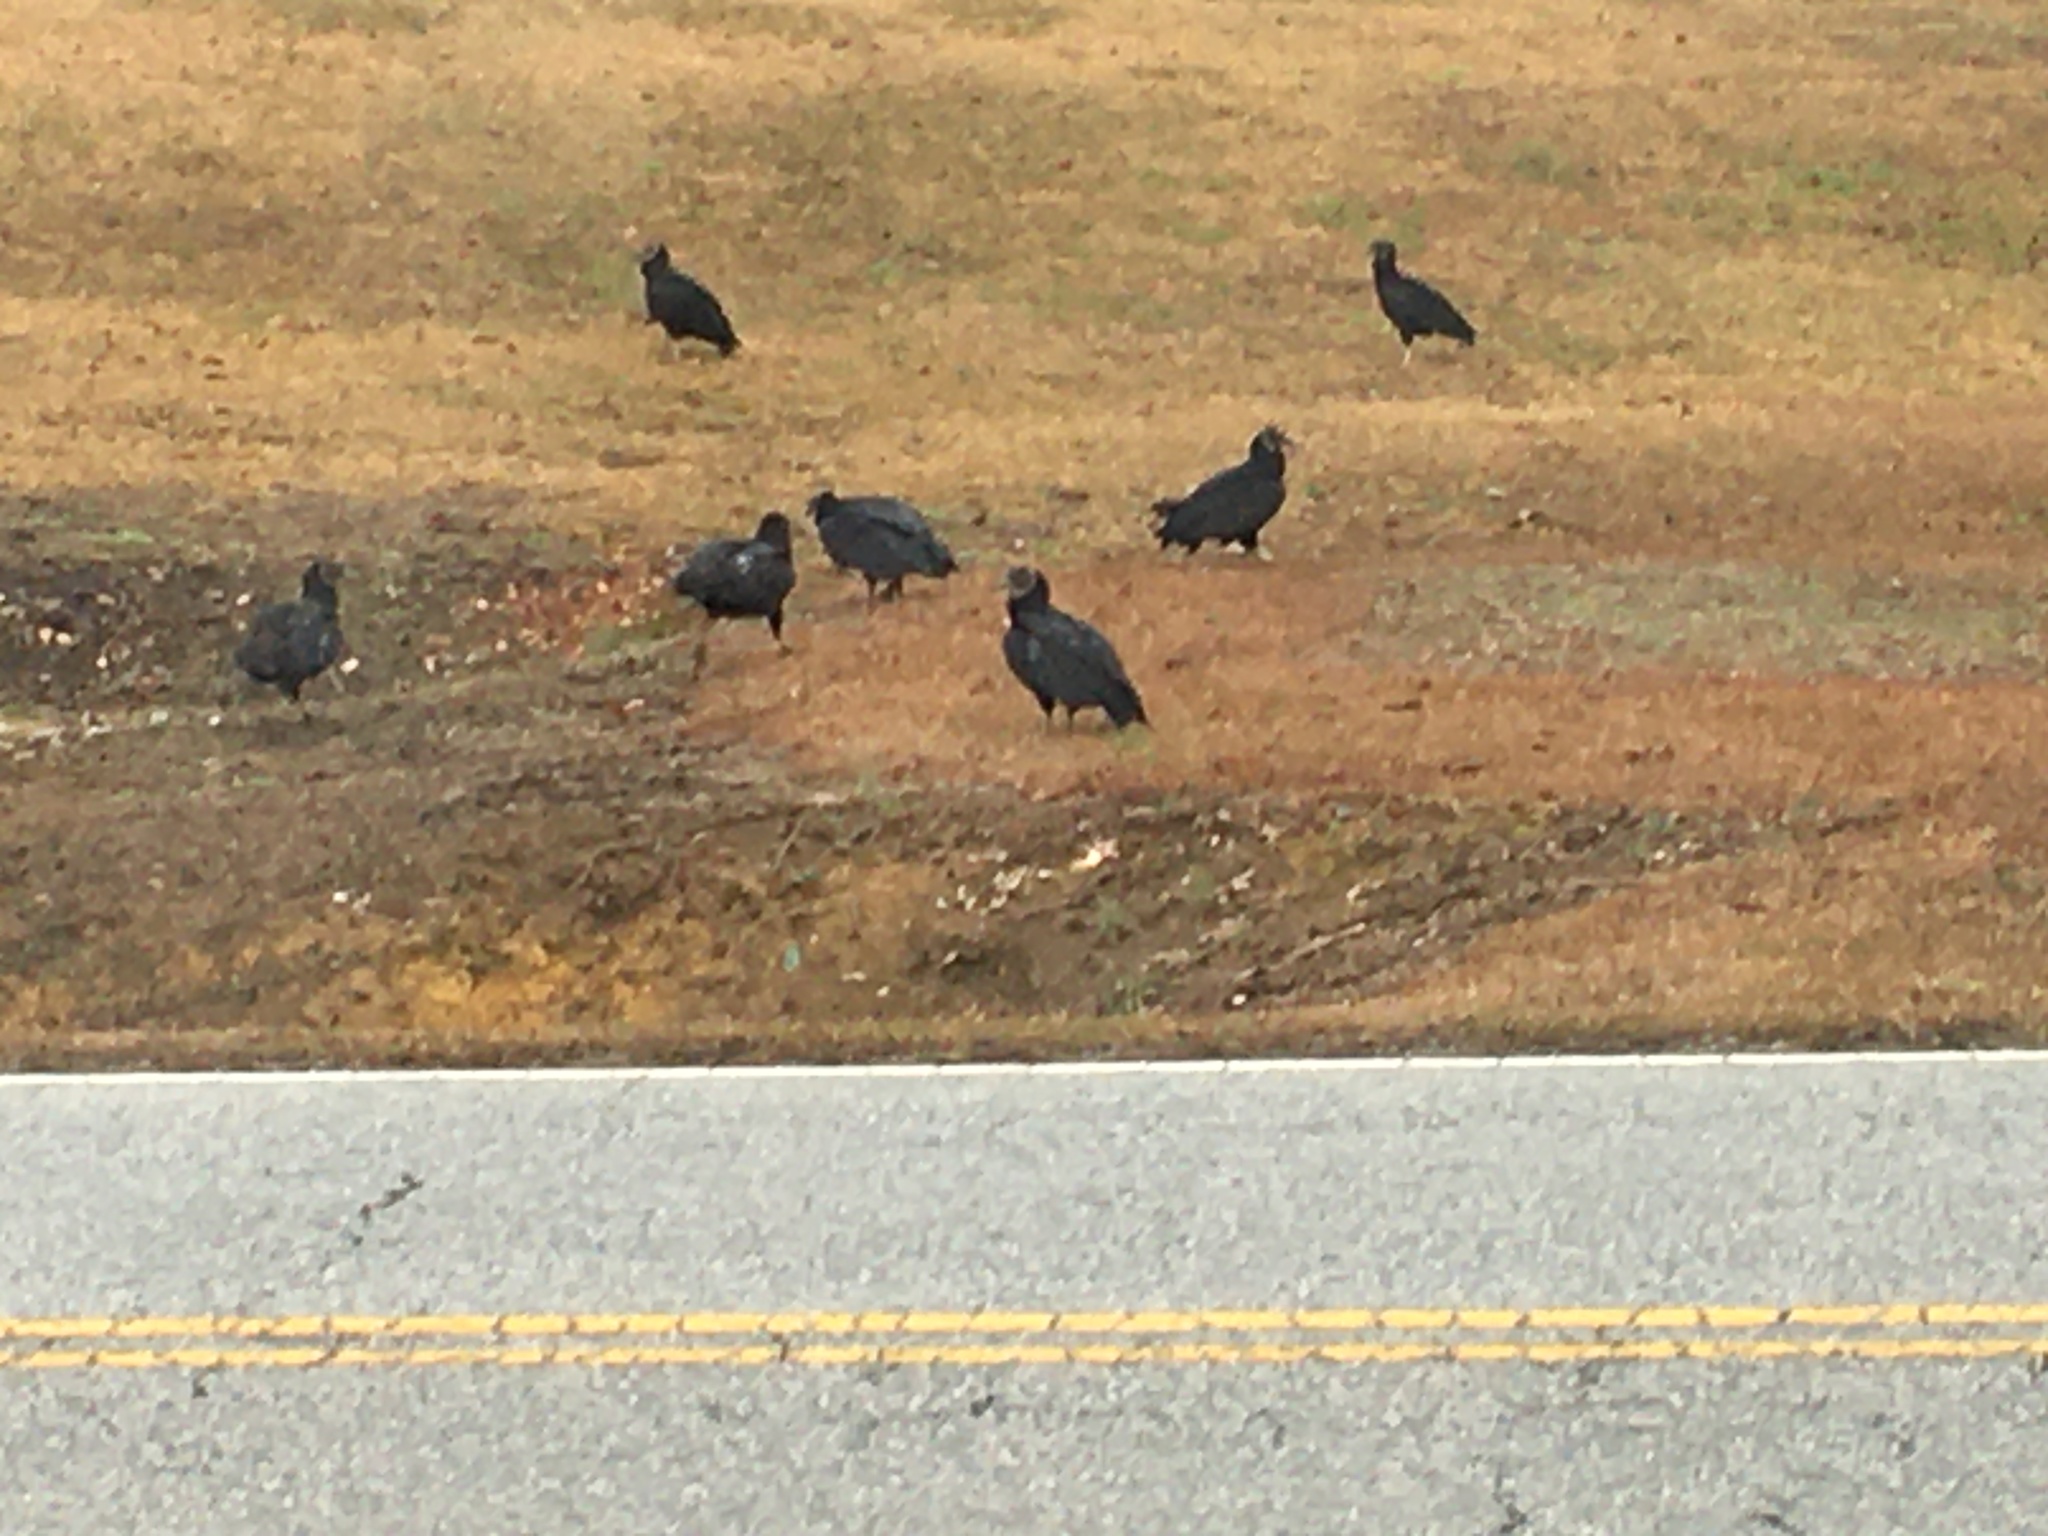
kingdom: Animalia
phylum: Chordata
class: Aves
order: Accipitriformes
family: Cathartidae
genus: Coragyps
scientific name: Coragyps atratus
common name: Black vulture
